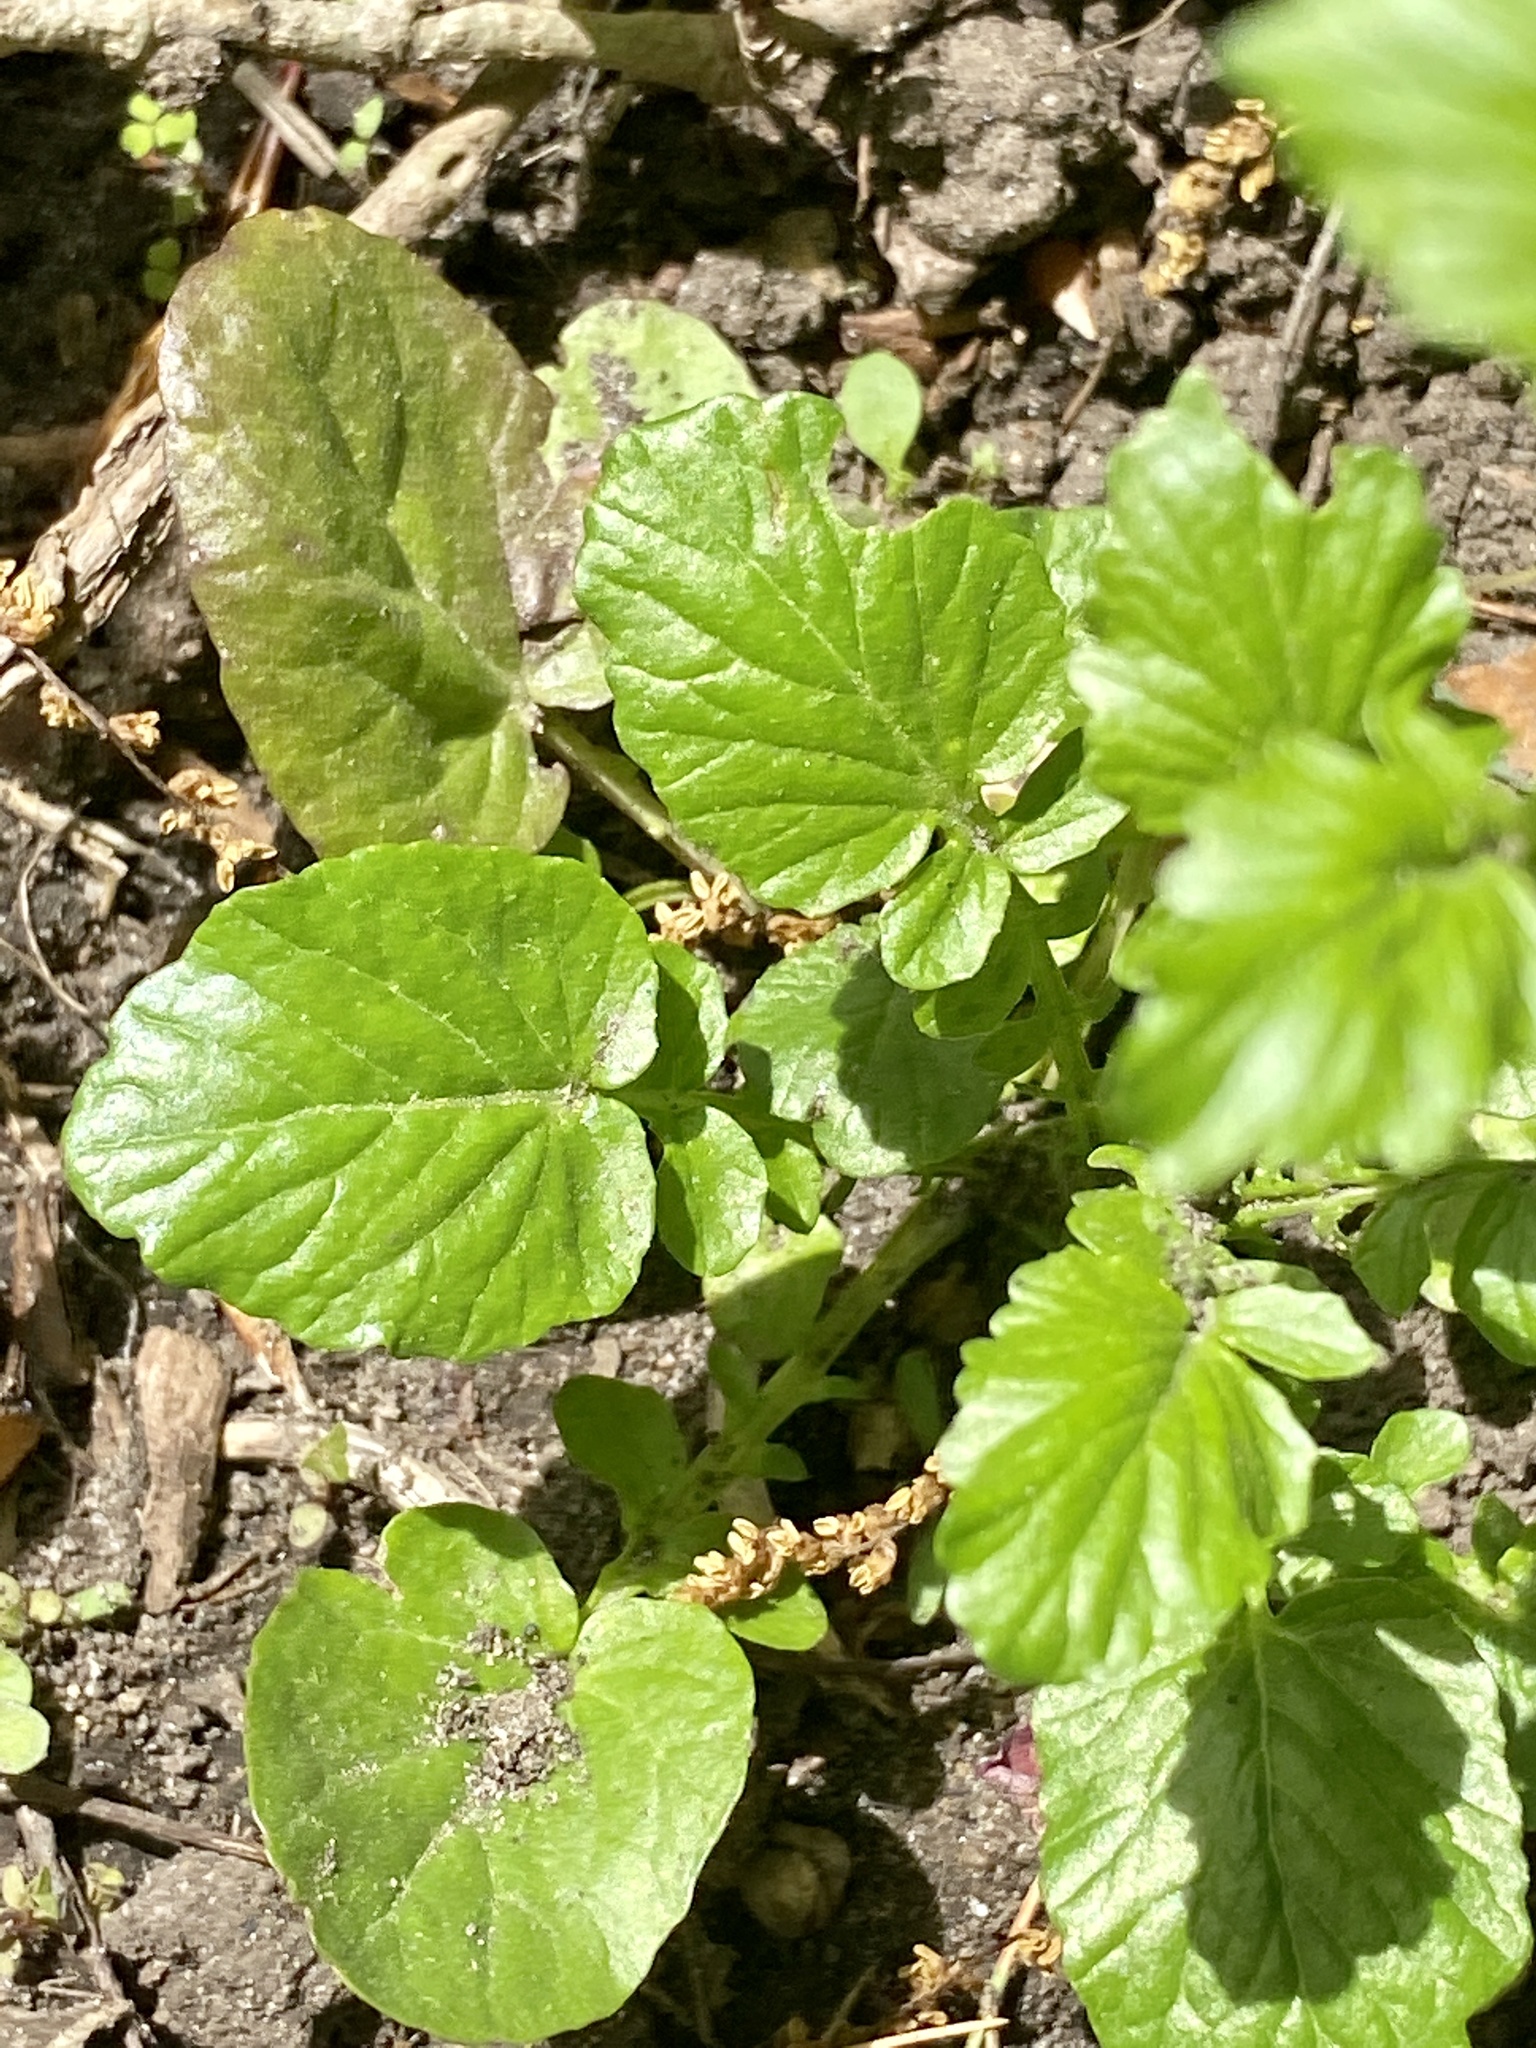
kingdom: Plantae
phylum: Tracheophyta
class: Magnoliopsida
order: Brassicales
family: Brassicaceae
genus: Barbarea
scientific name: Barbarea vulgaris
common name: Cressy-greens
